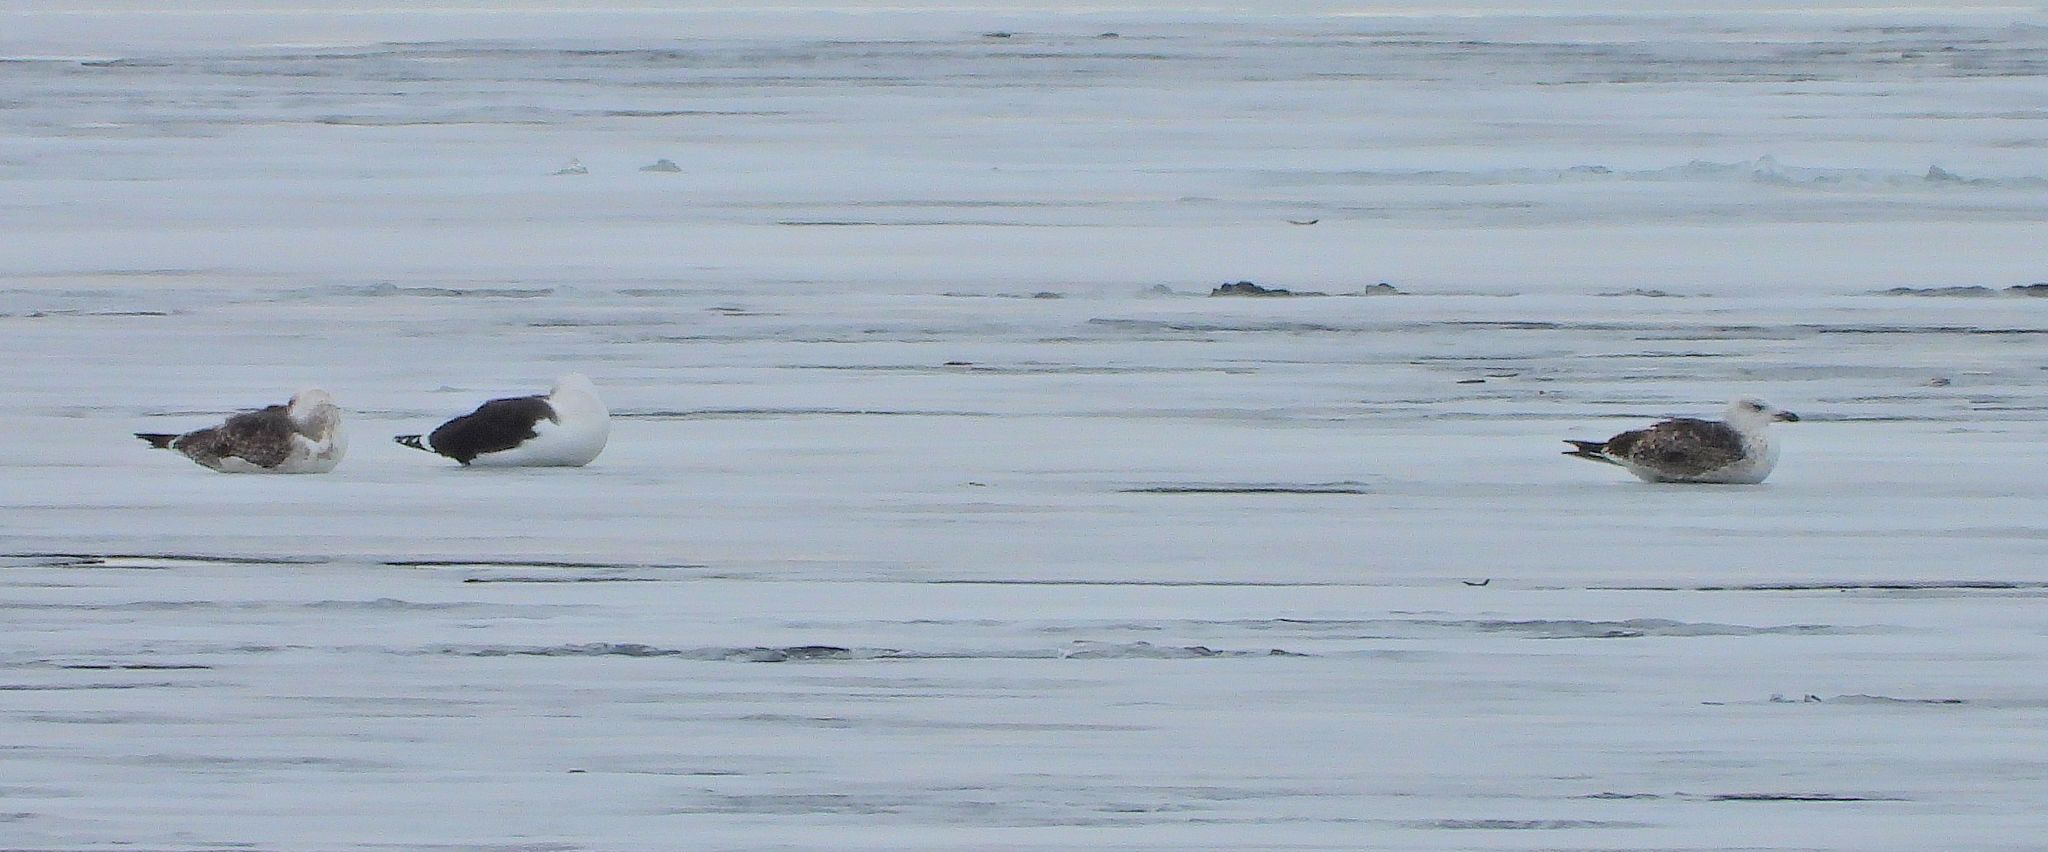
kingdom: Animalia
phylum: Chordata
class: Aves
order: Charadriiformes
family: Laridae
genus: Larus
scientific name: Larus marinus
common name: Great black-backed gull
